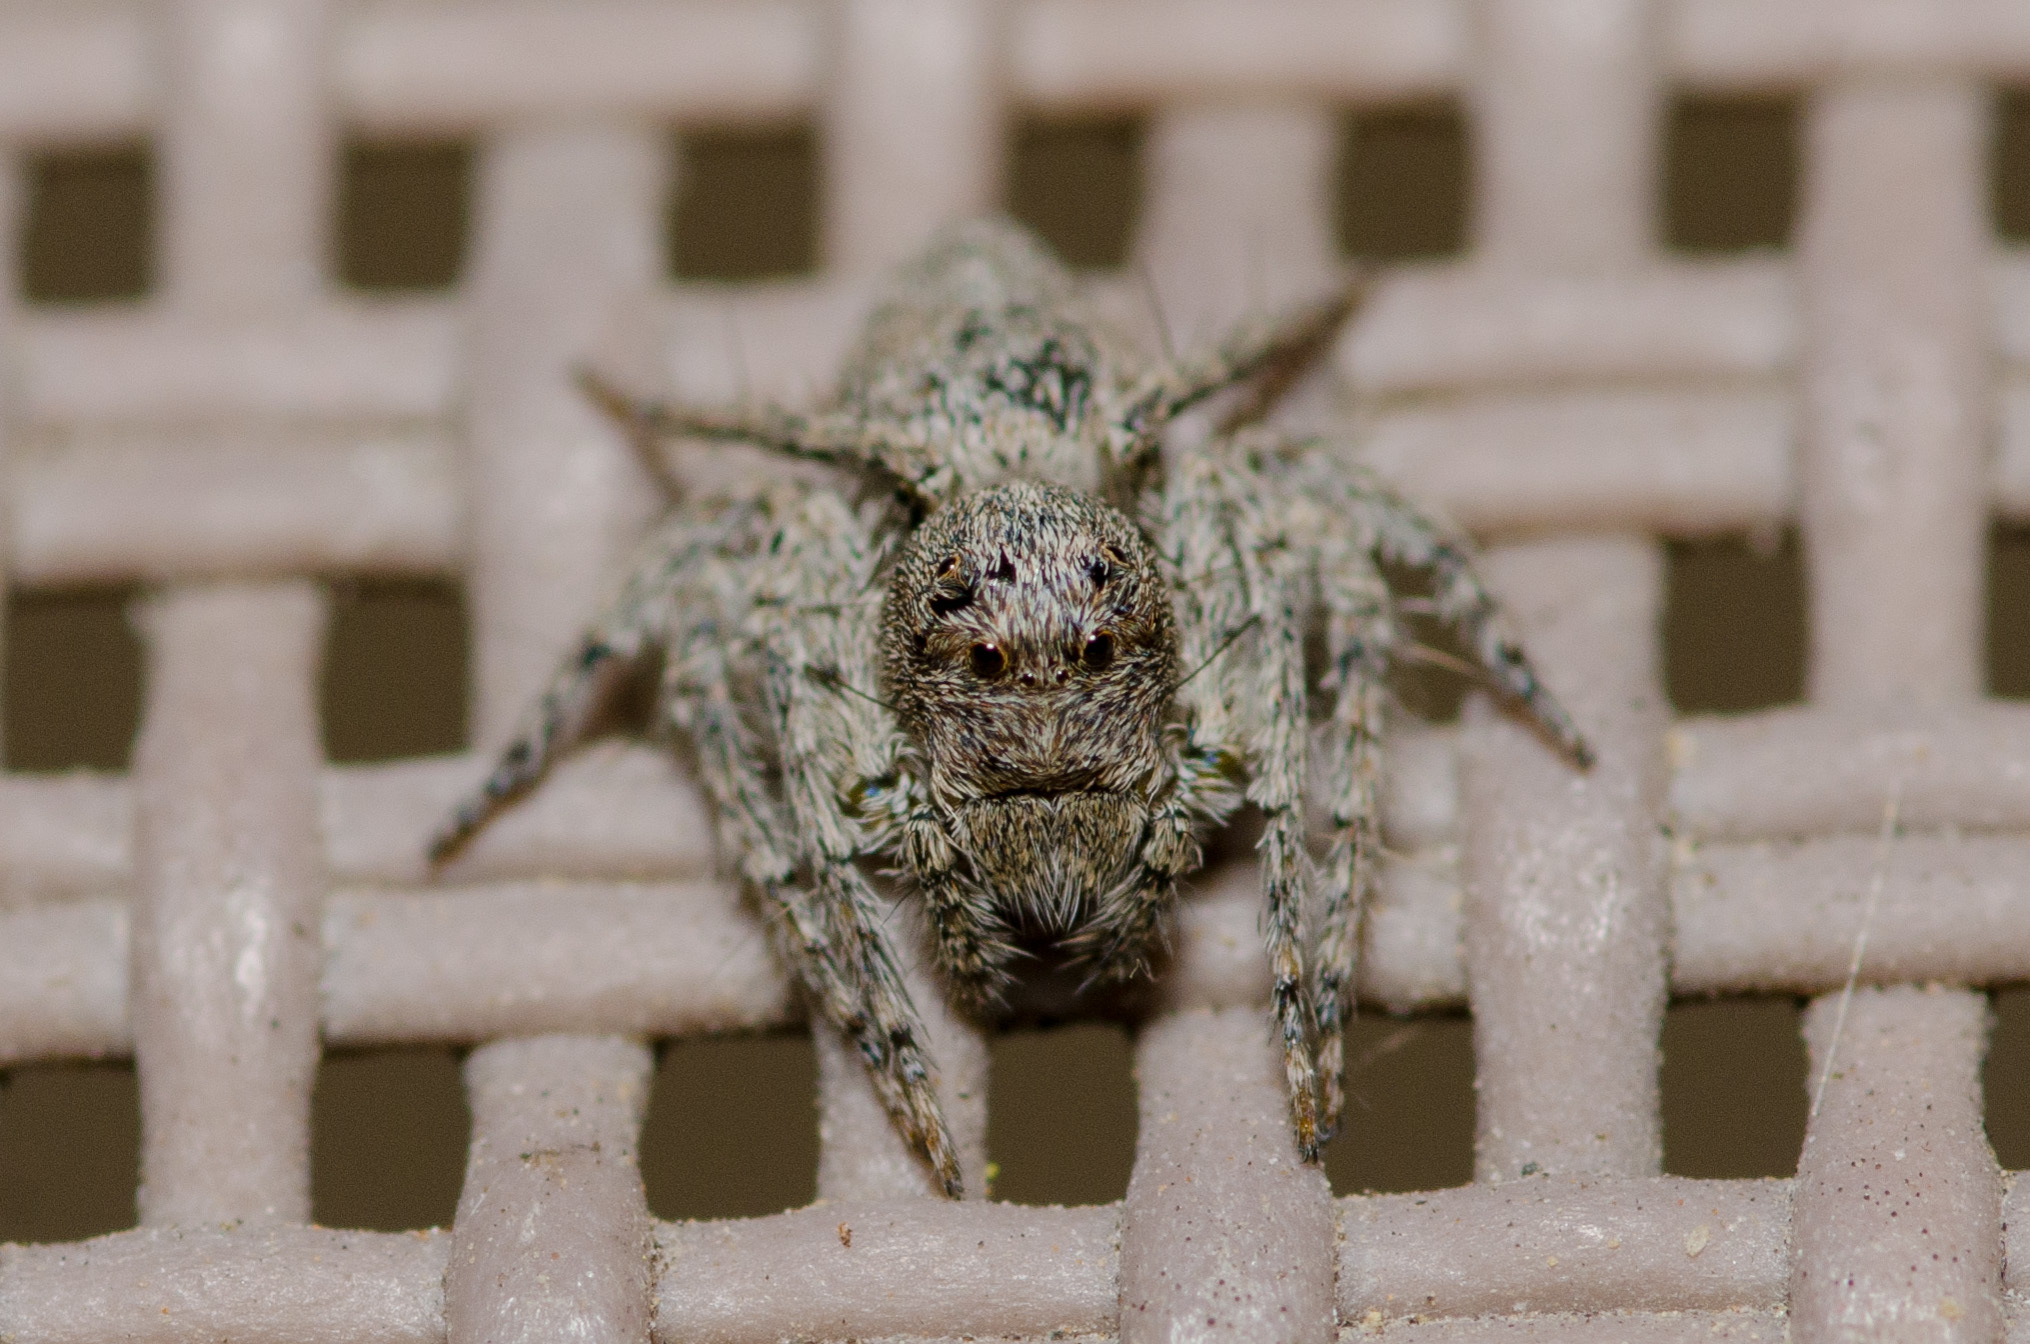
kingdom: Animalia
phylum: Arthropoda
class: Arachnida
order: Araneae
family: Oxyopidae
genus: Hamataliwa
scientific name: Hamataliwa grisea
